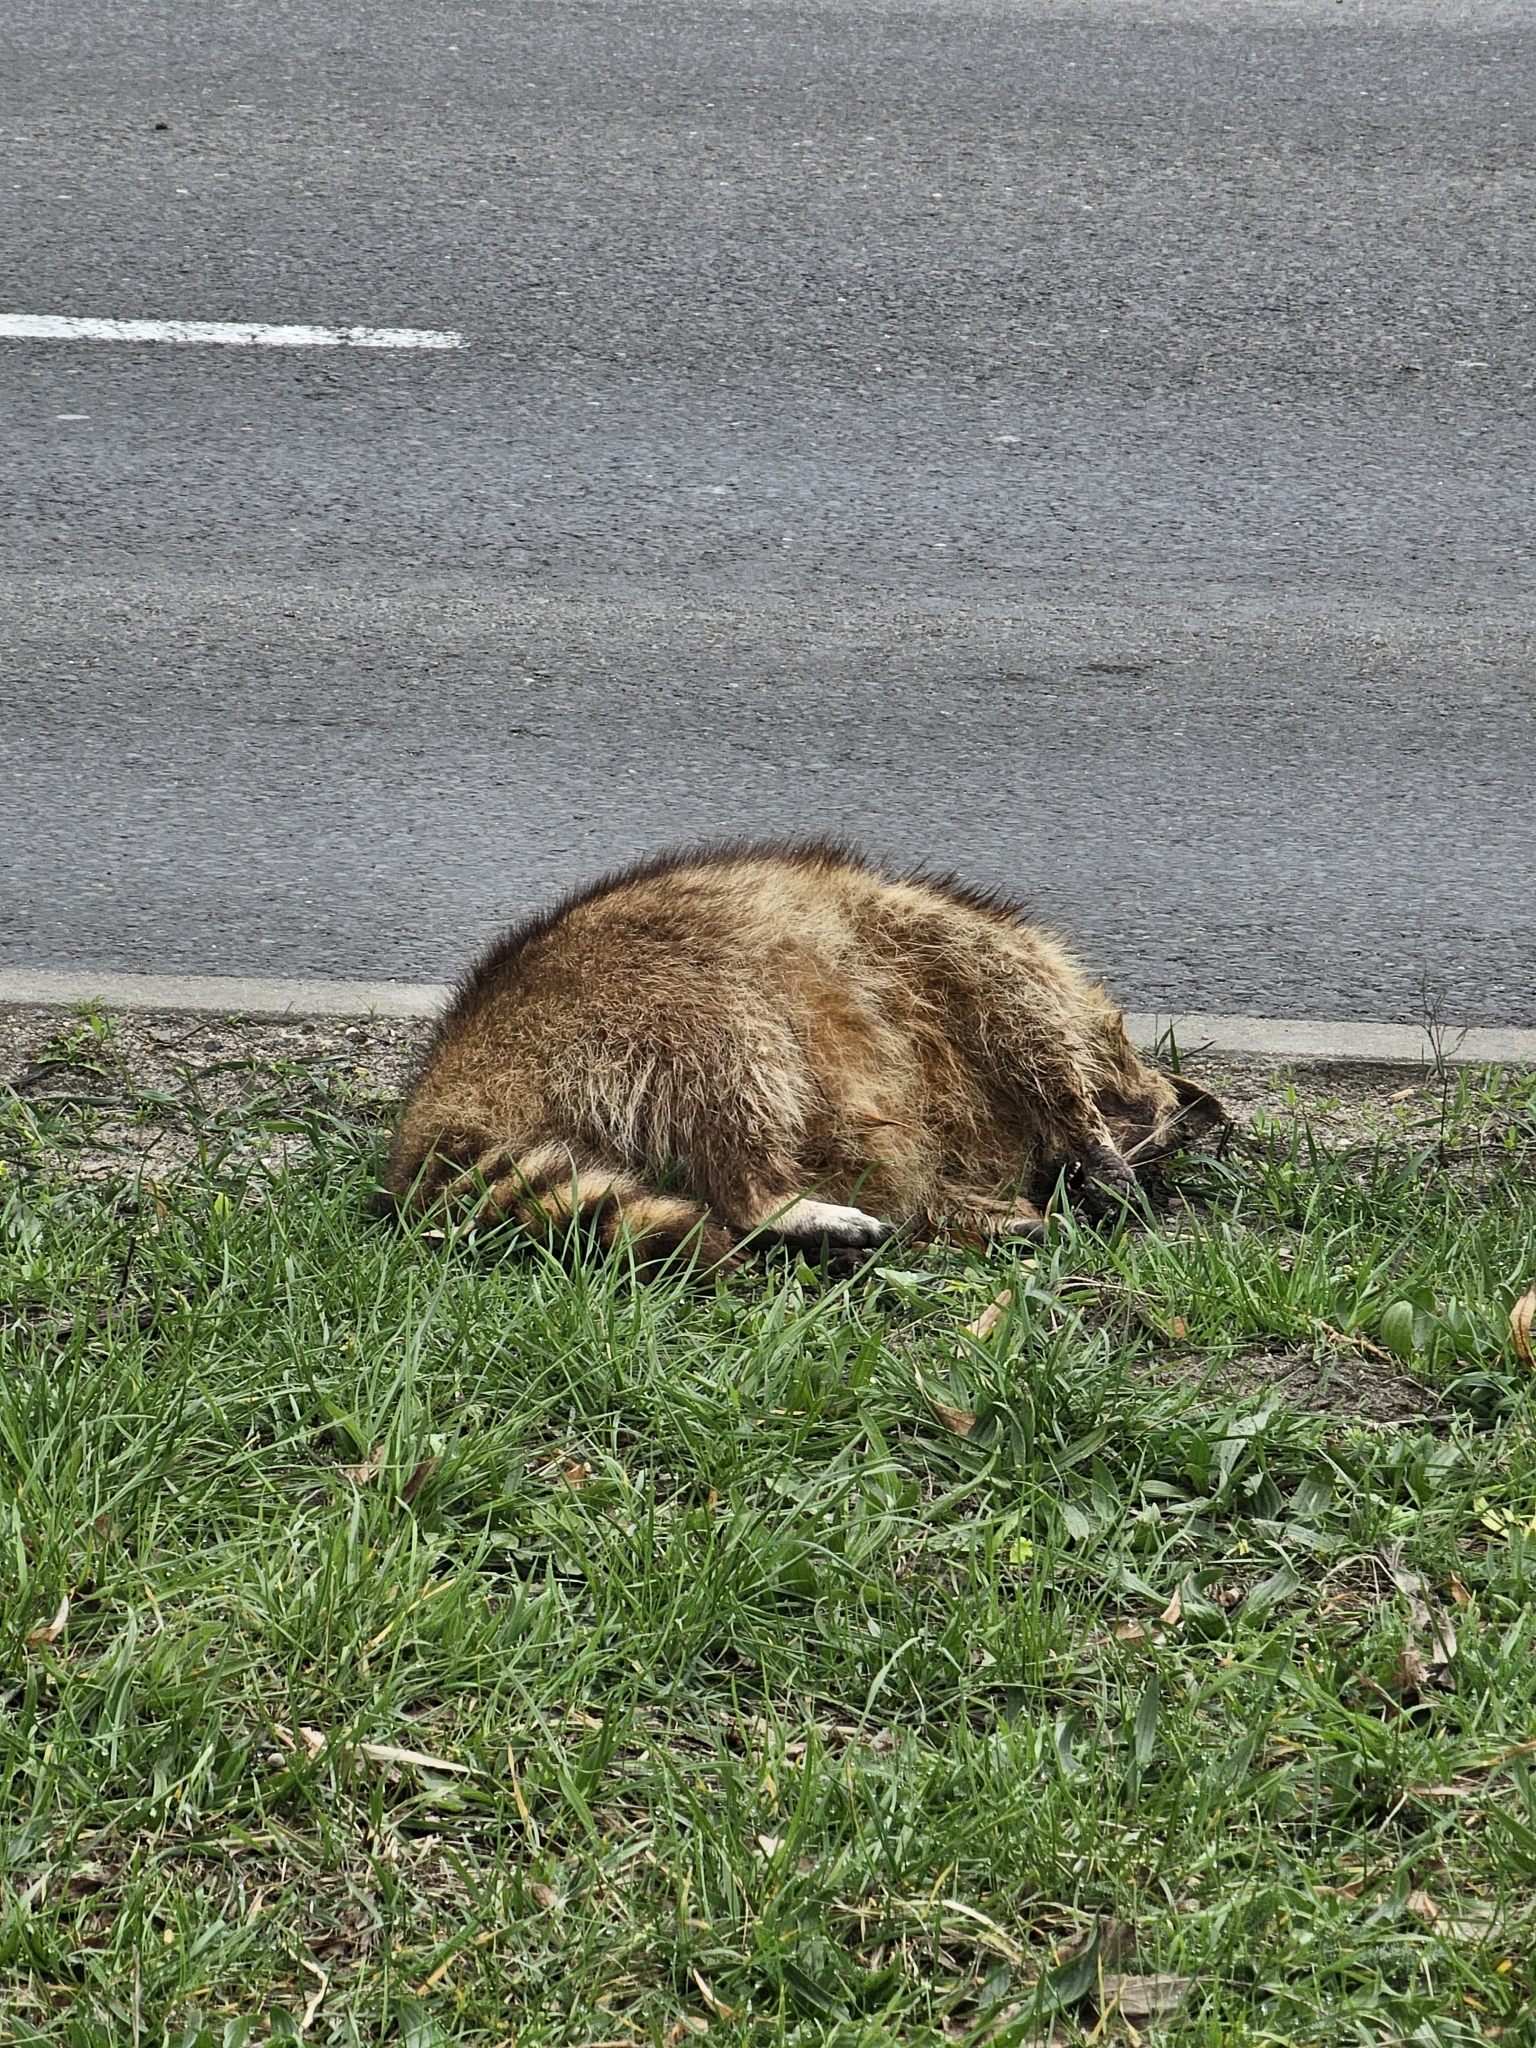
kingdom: Animalia
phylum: Chordata
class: Mammalia
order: Carnivora
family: Procyonidae
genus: Procyon
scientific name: Procyon lotor
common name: Raccoon
